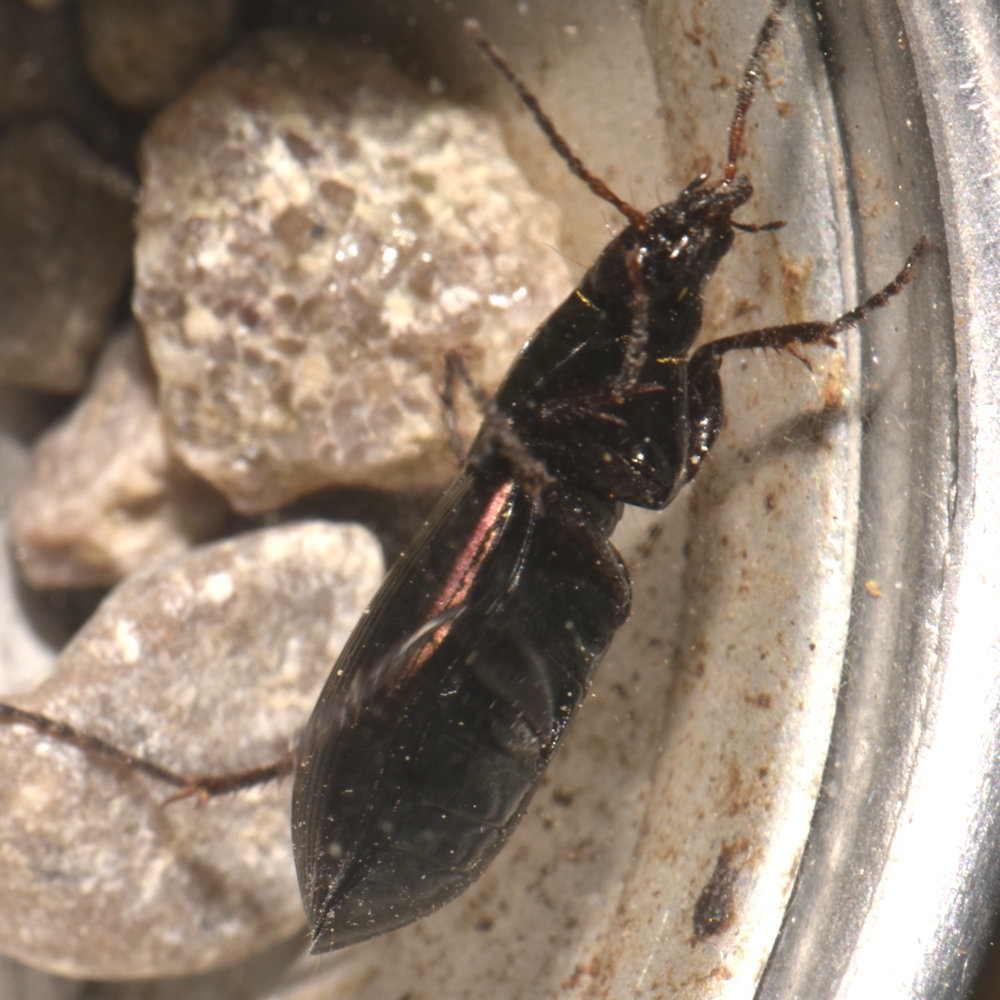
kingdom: Animalia
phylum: Arthropoda
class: Insecta
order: Coleoptera
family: Carabidae
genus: Poecilus
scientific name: Poecilus lucublandus
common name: Woodland ground beetle
